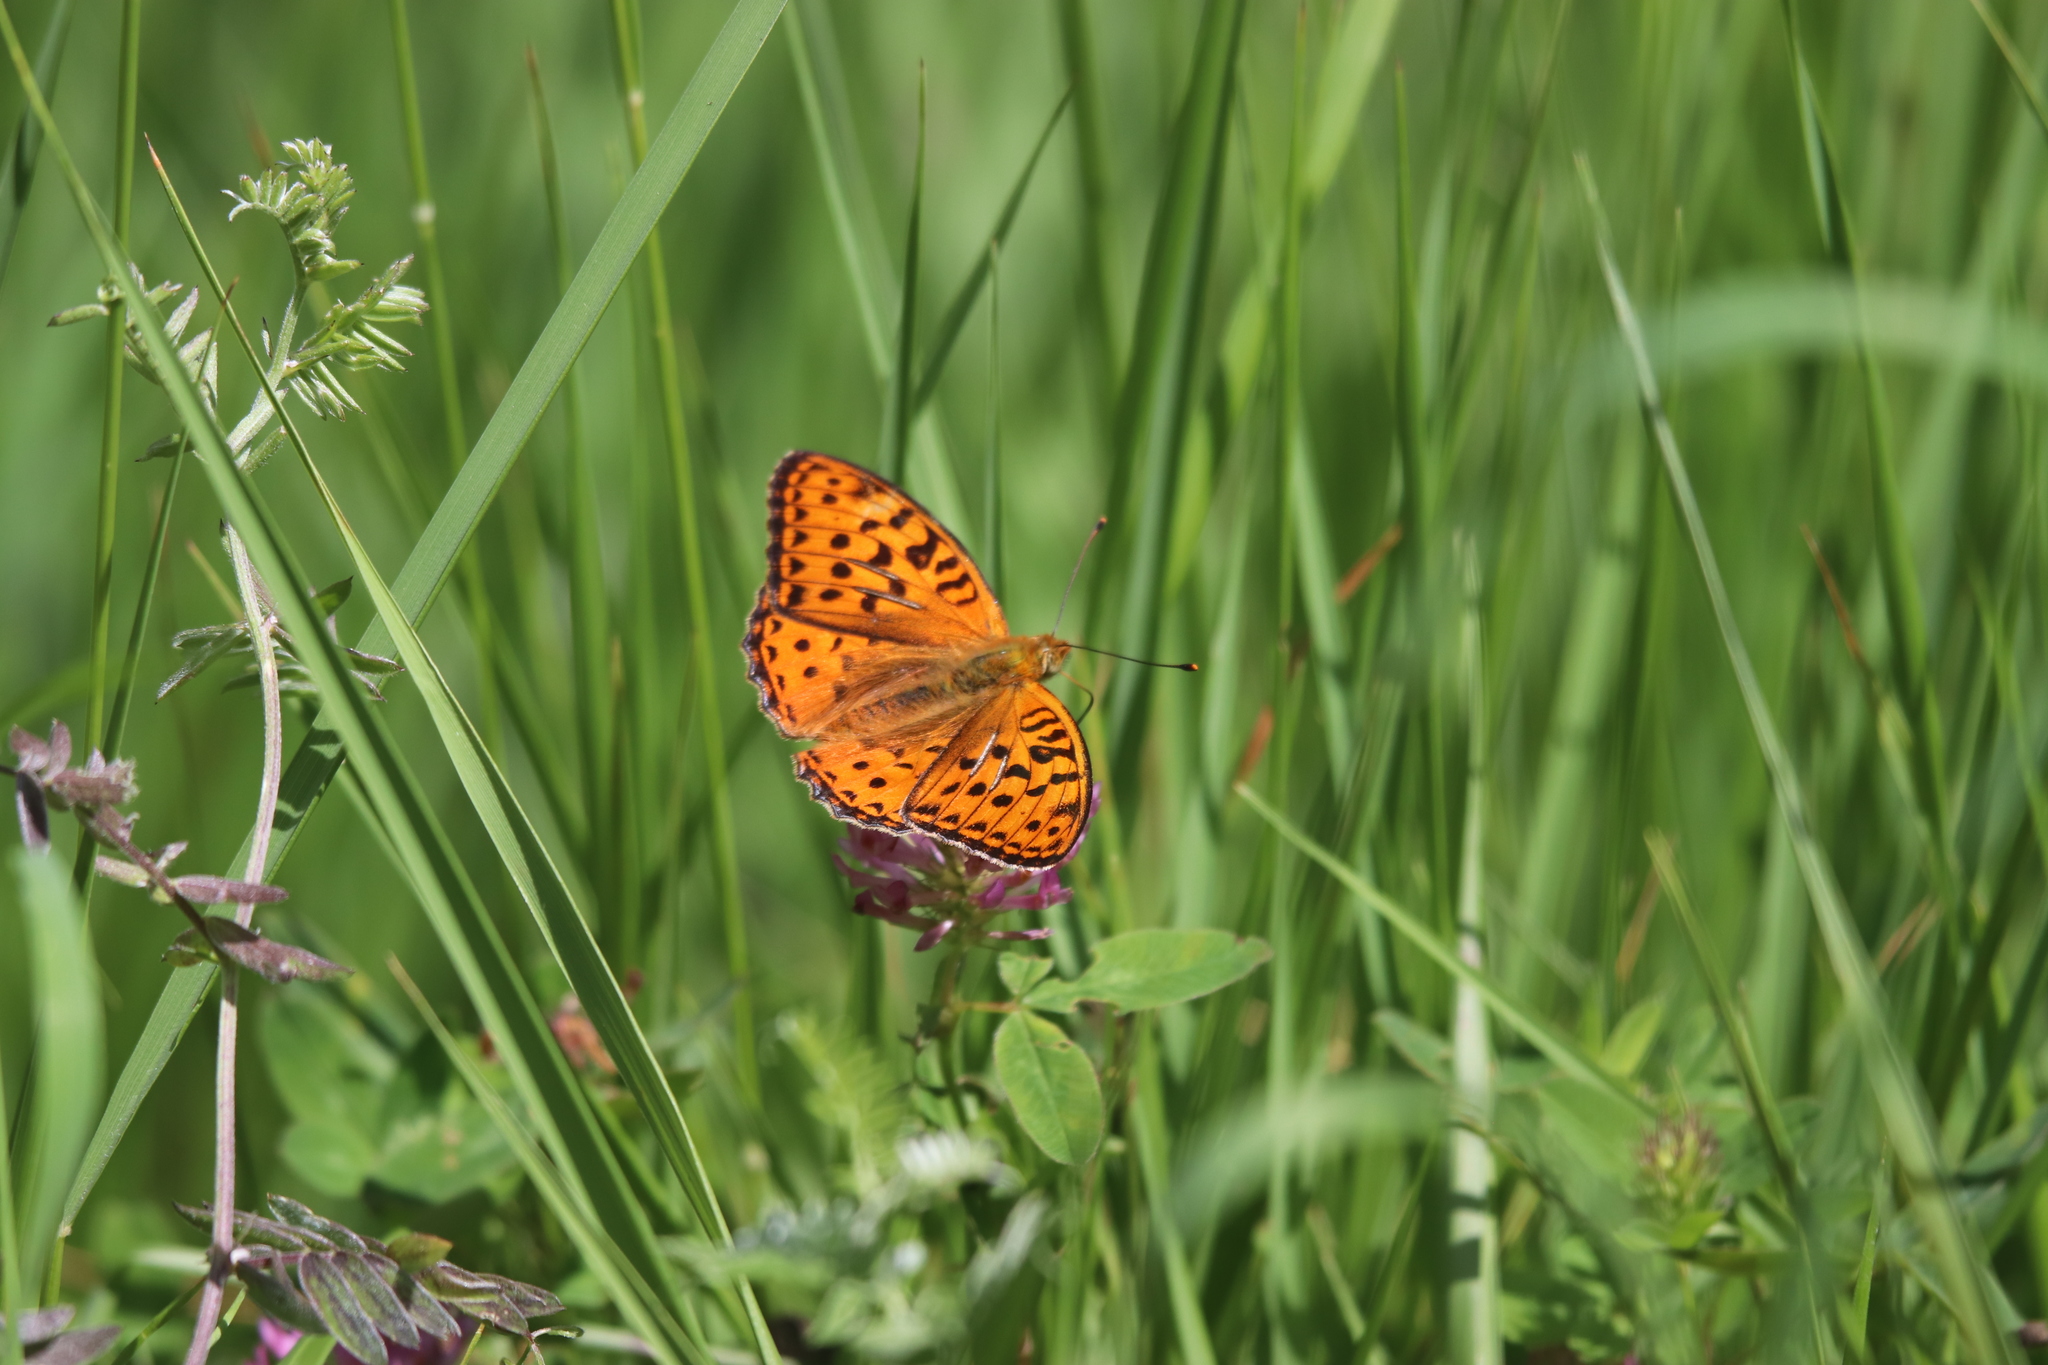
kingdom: Animalia
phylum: Arthropoda
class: Insecta
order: Lepidoptera
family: Nymphalidae
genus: Fabriciana
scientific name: Fabriciana adippe
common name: High brown fritillary
